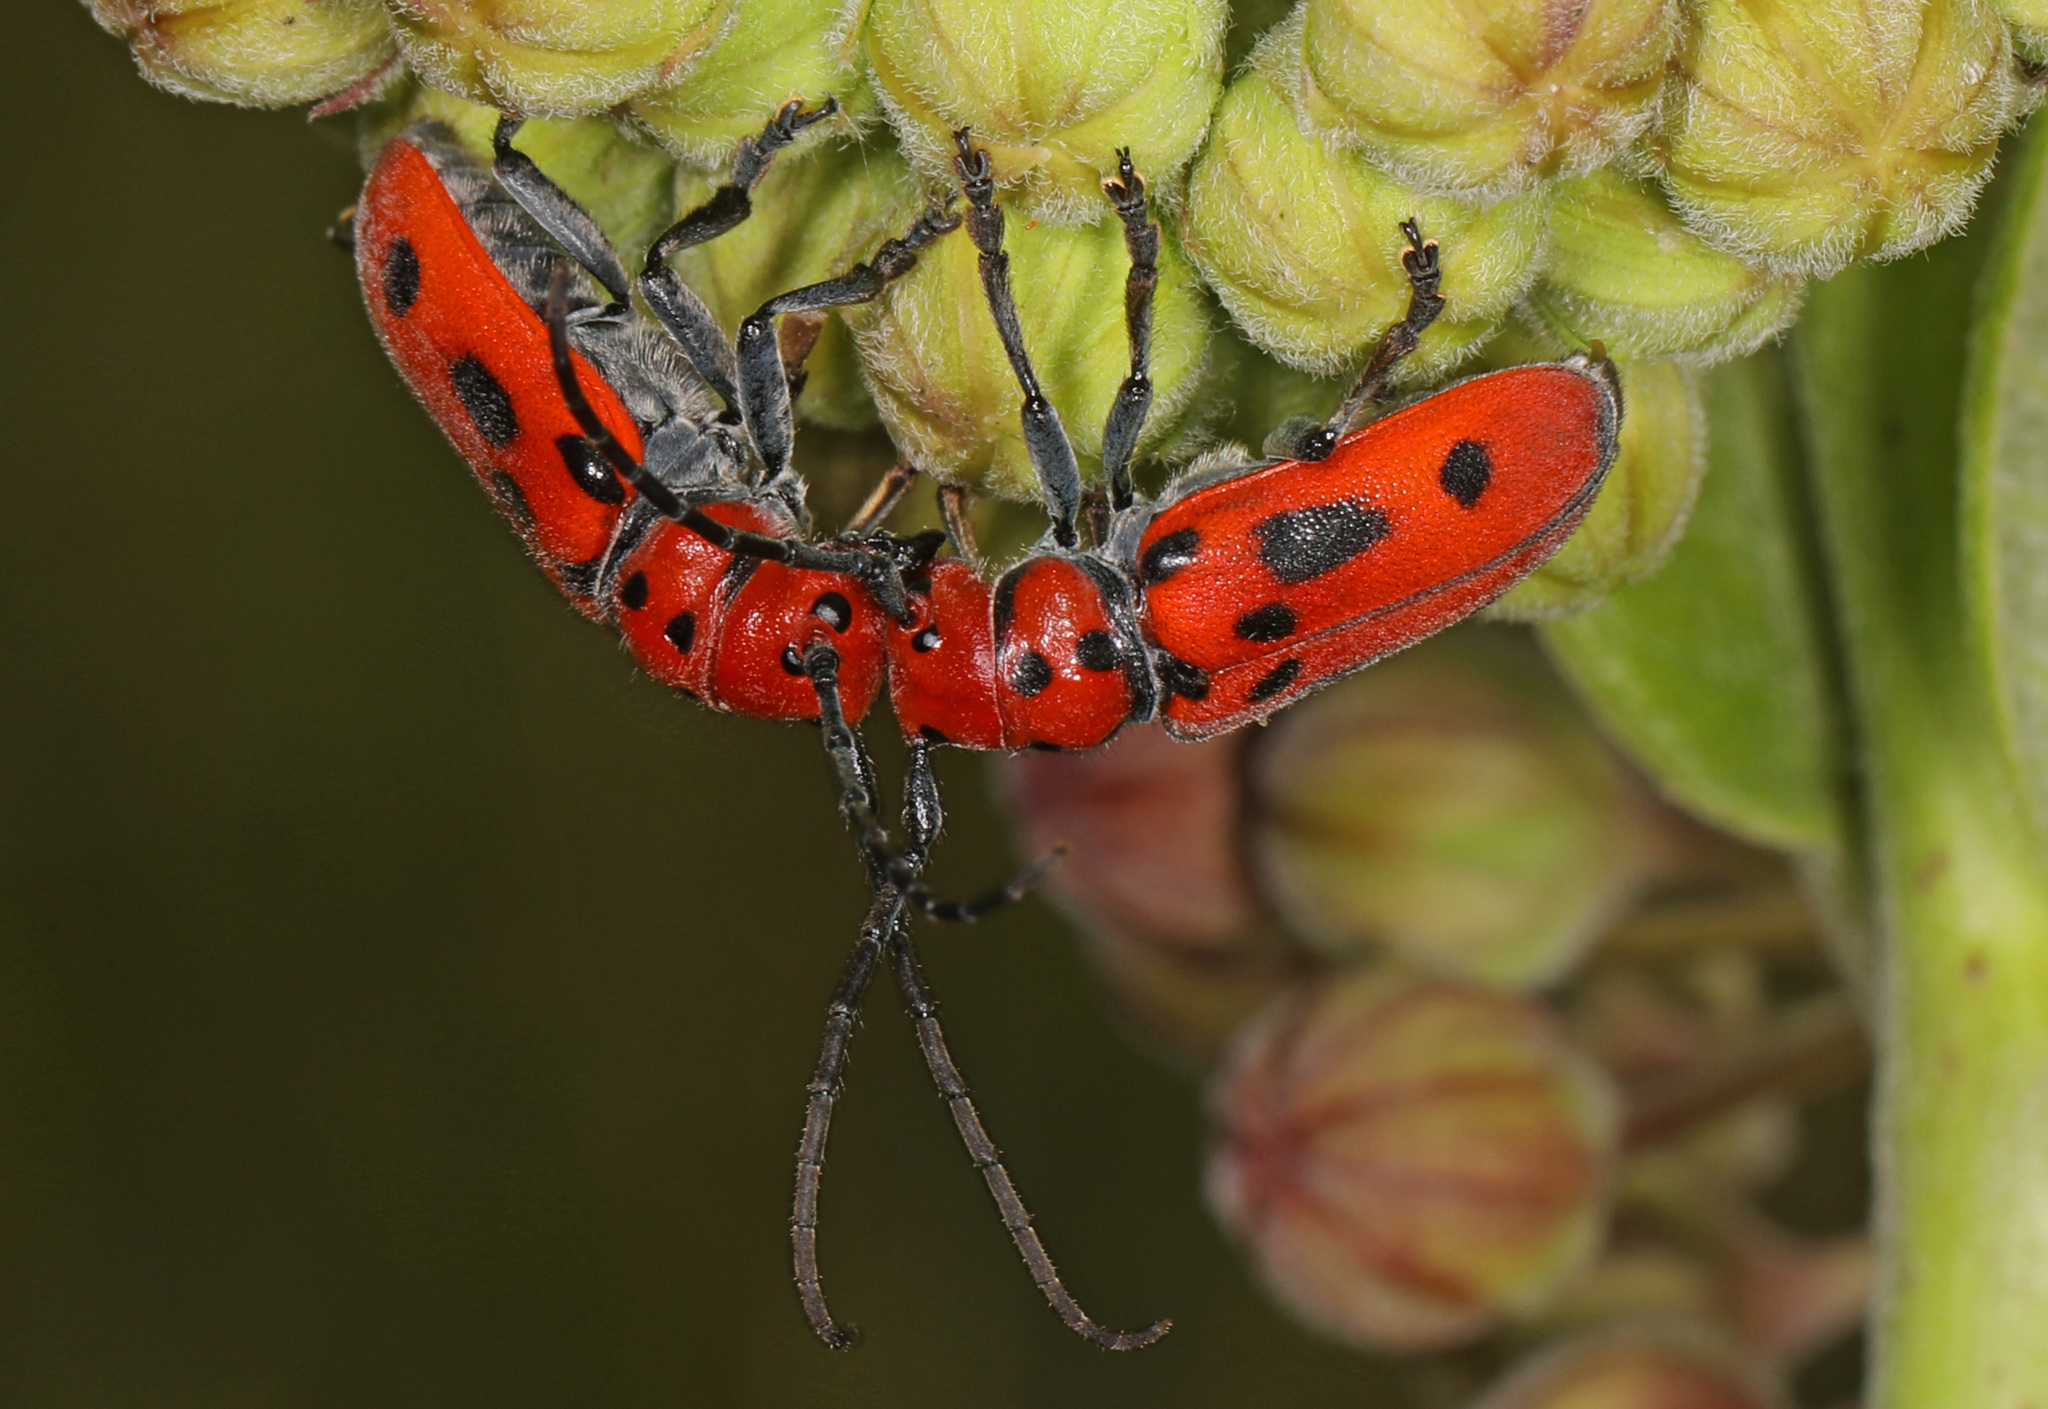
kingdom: Animalia
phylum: Arthropoda
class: Insecta
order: Coleoptera
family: Cerambycidae
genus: Tetraopes
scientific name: Tetraopes tetrophthalmus
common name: Red milkweed beetle
